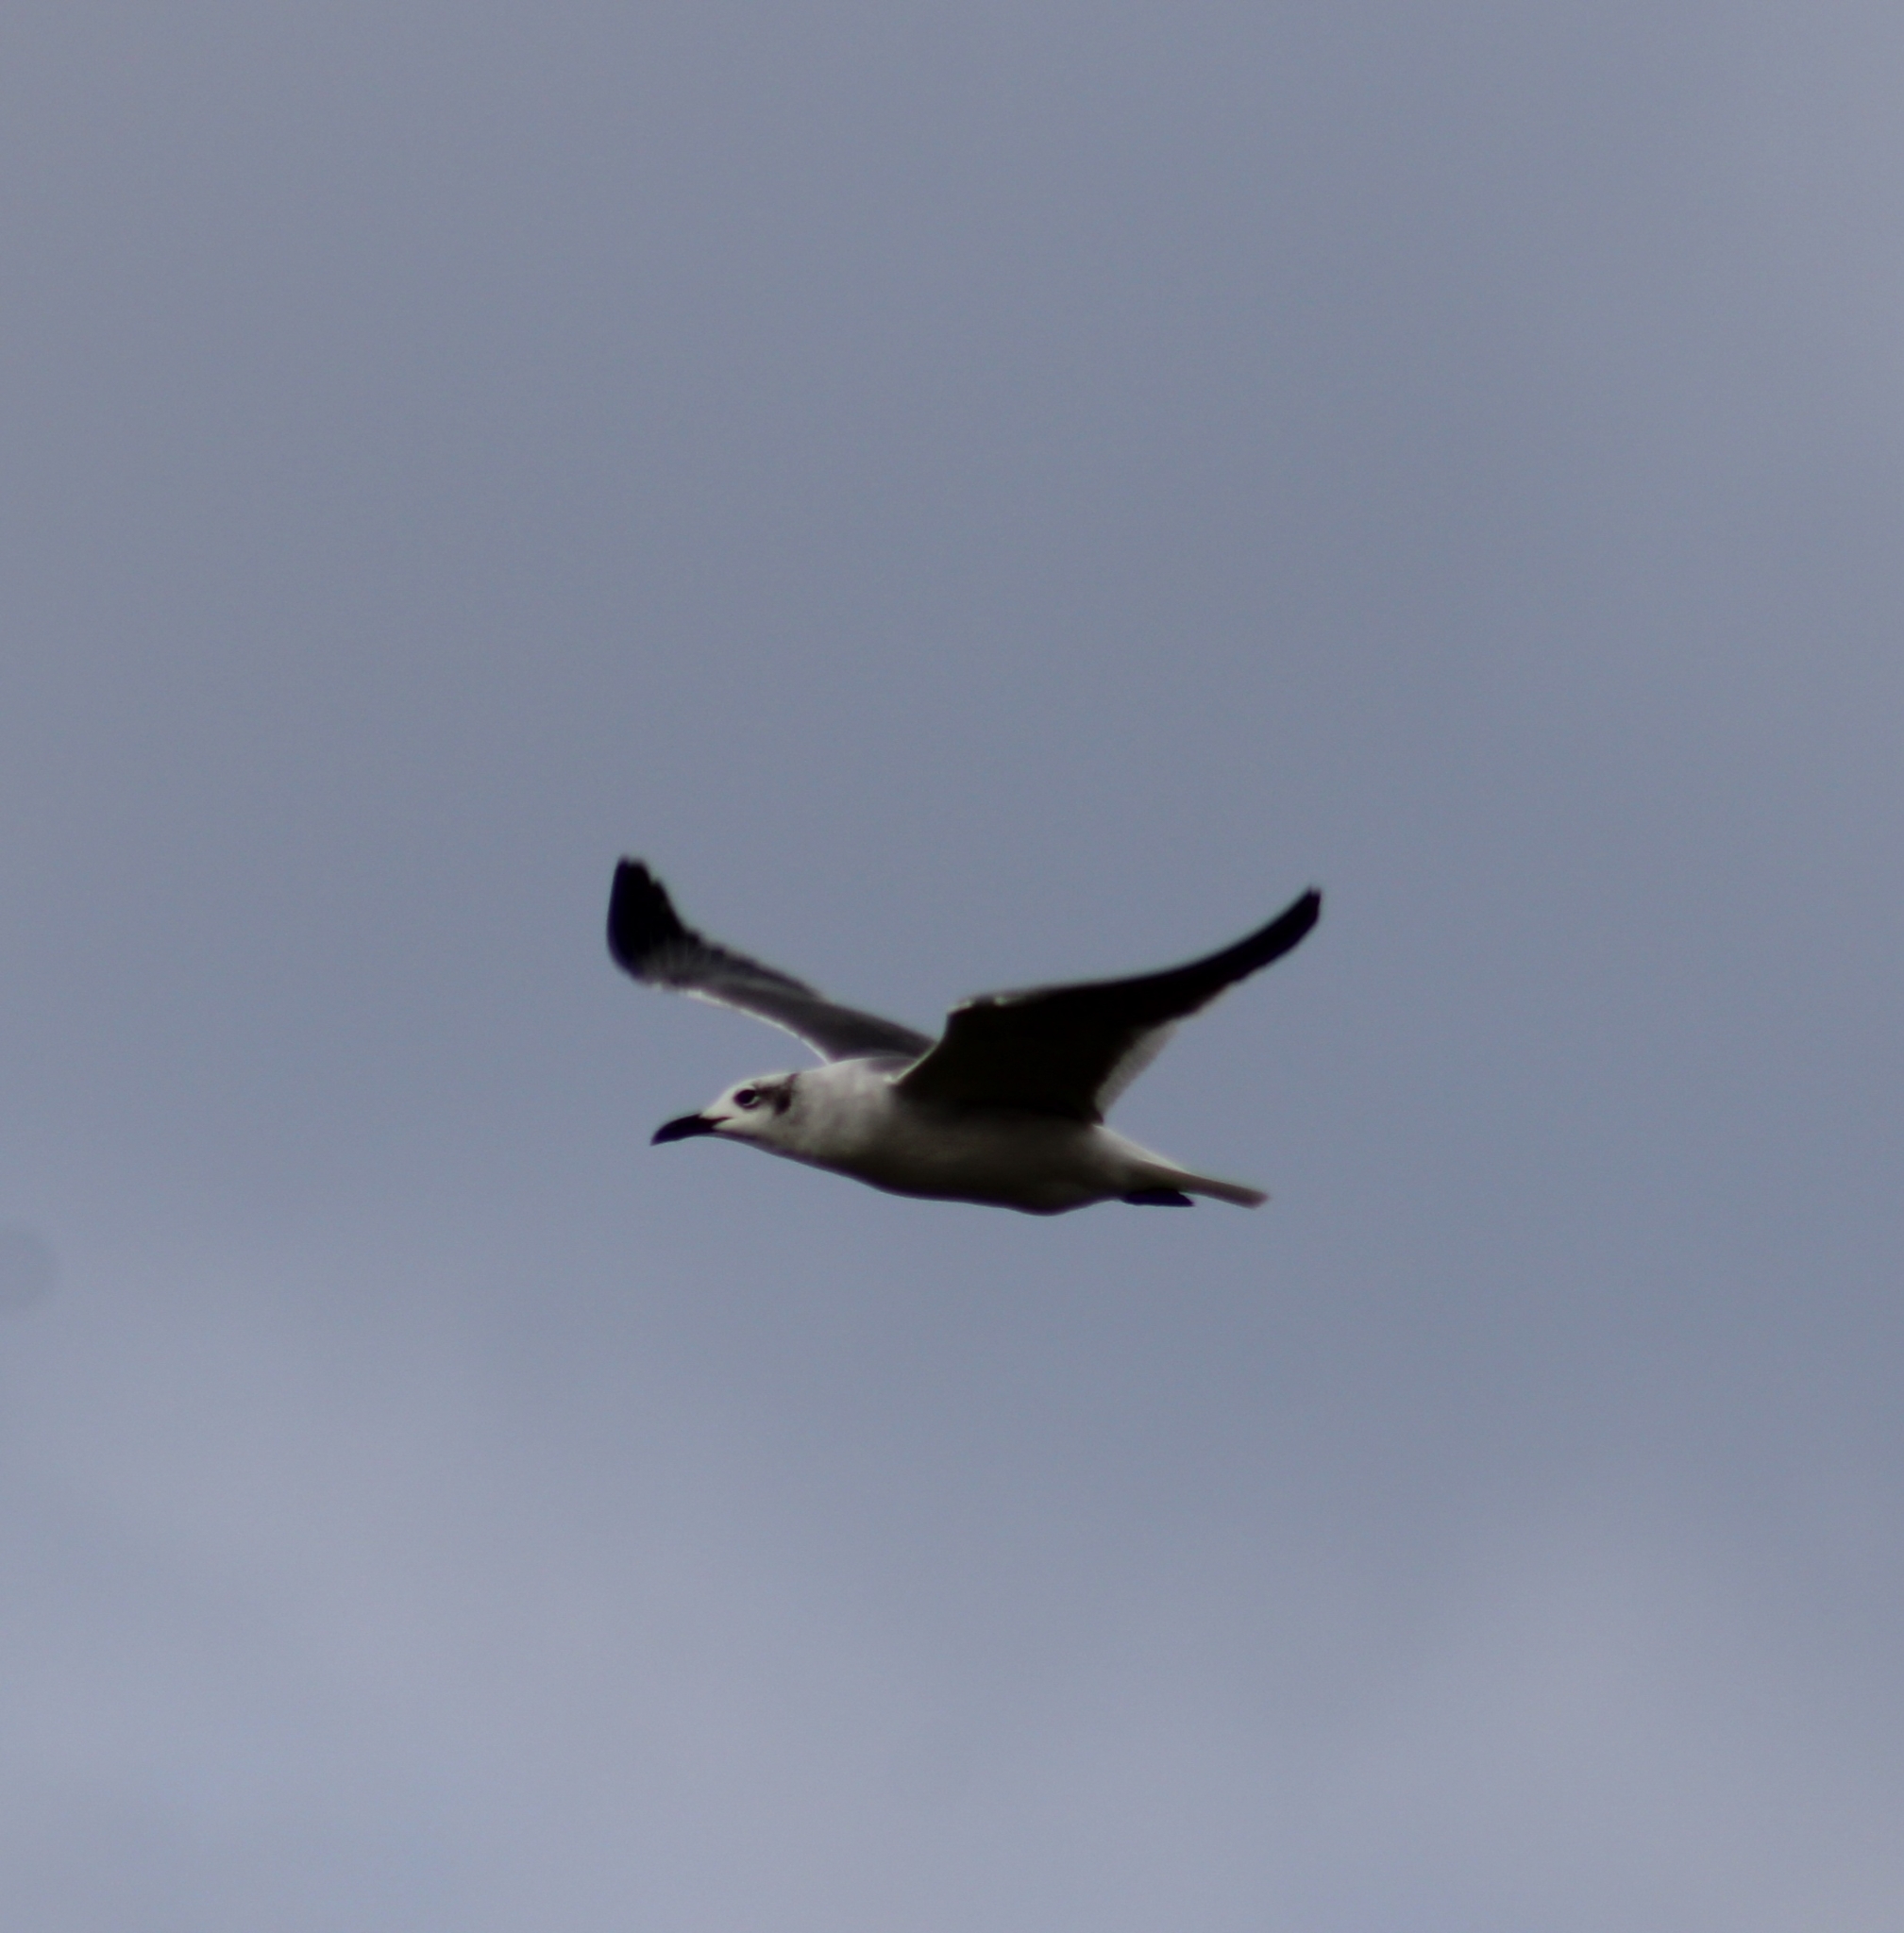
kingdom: Animalia
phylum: Chordata
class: Aves
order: Charadriiformes
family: Laridae
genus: Leucophaeus
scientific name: Leucophaeus atricilla
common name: Laughing gull
